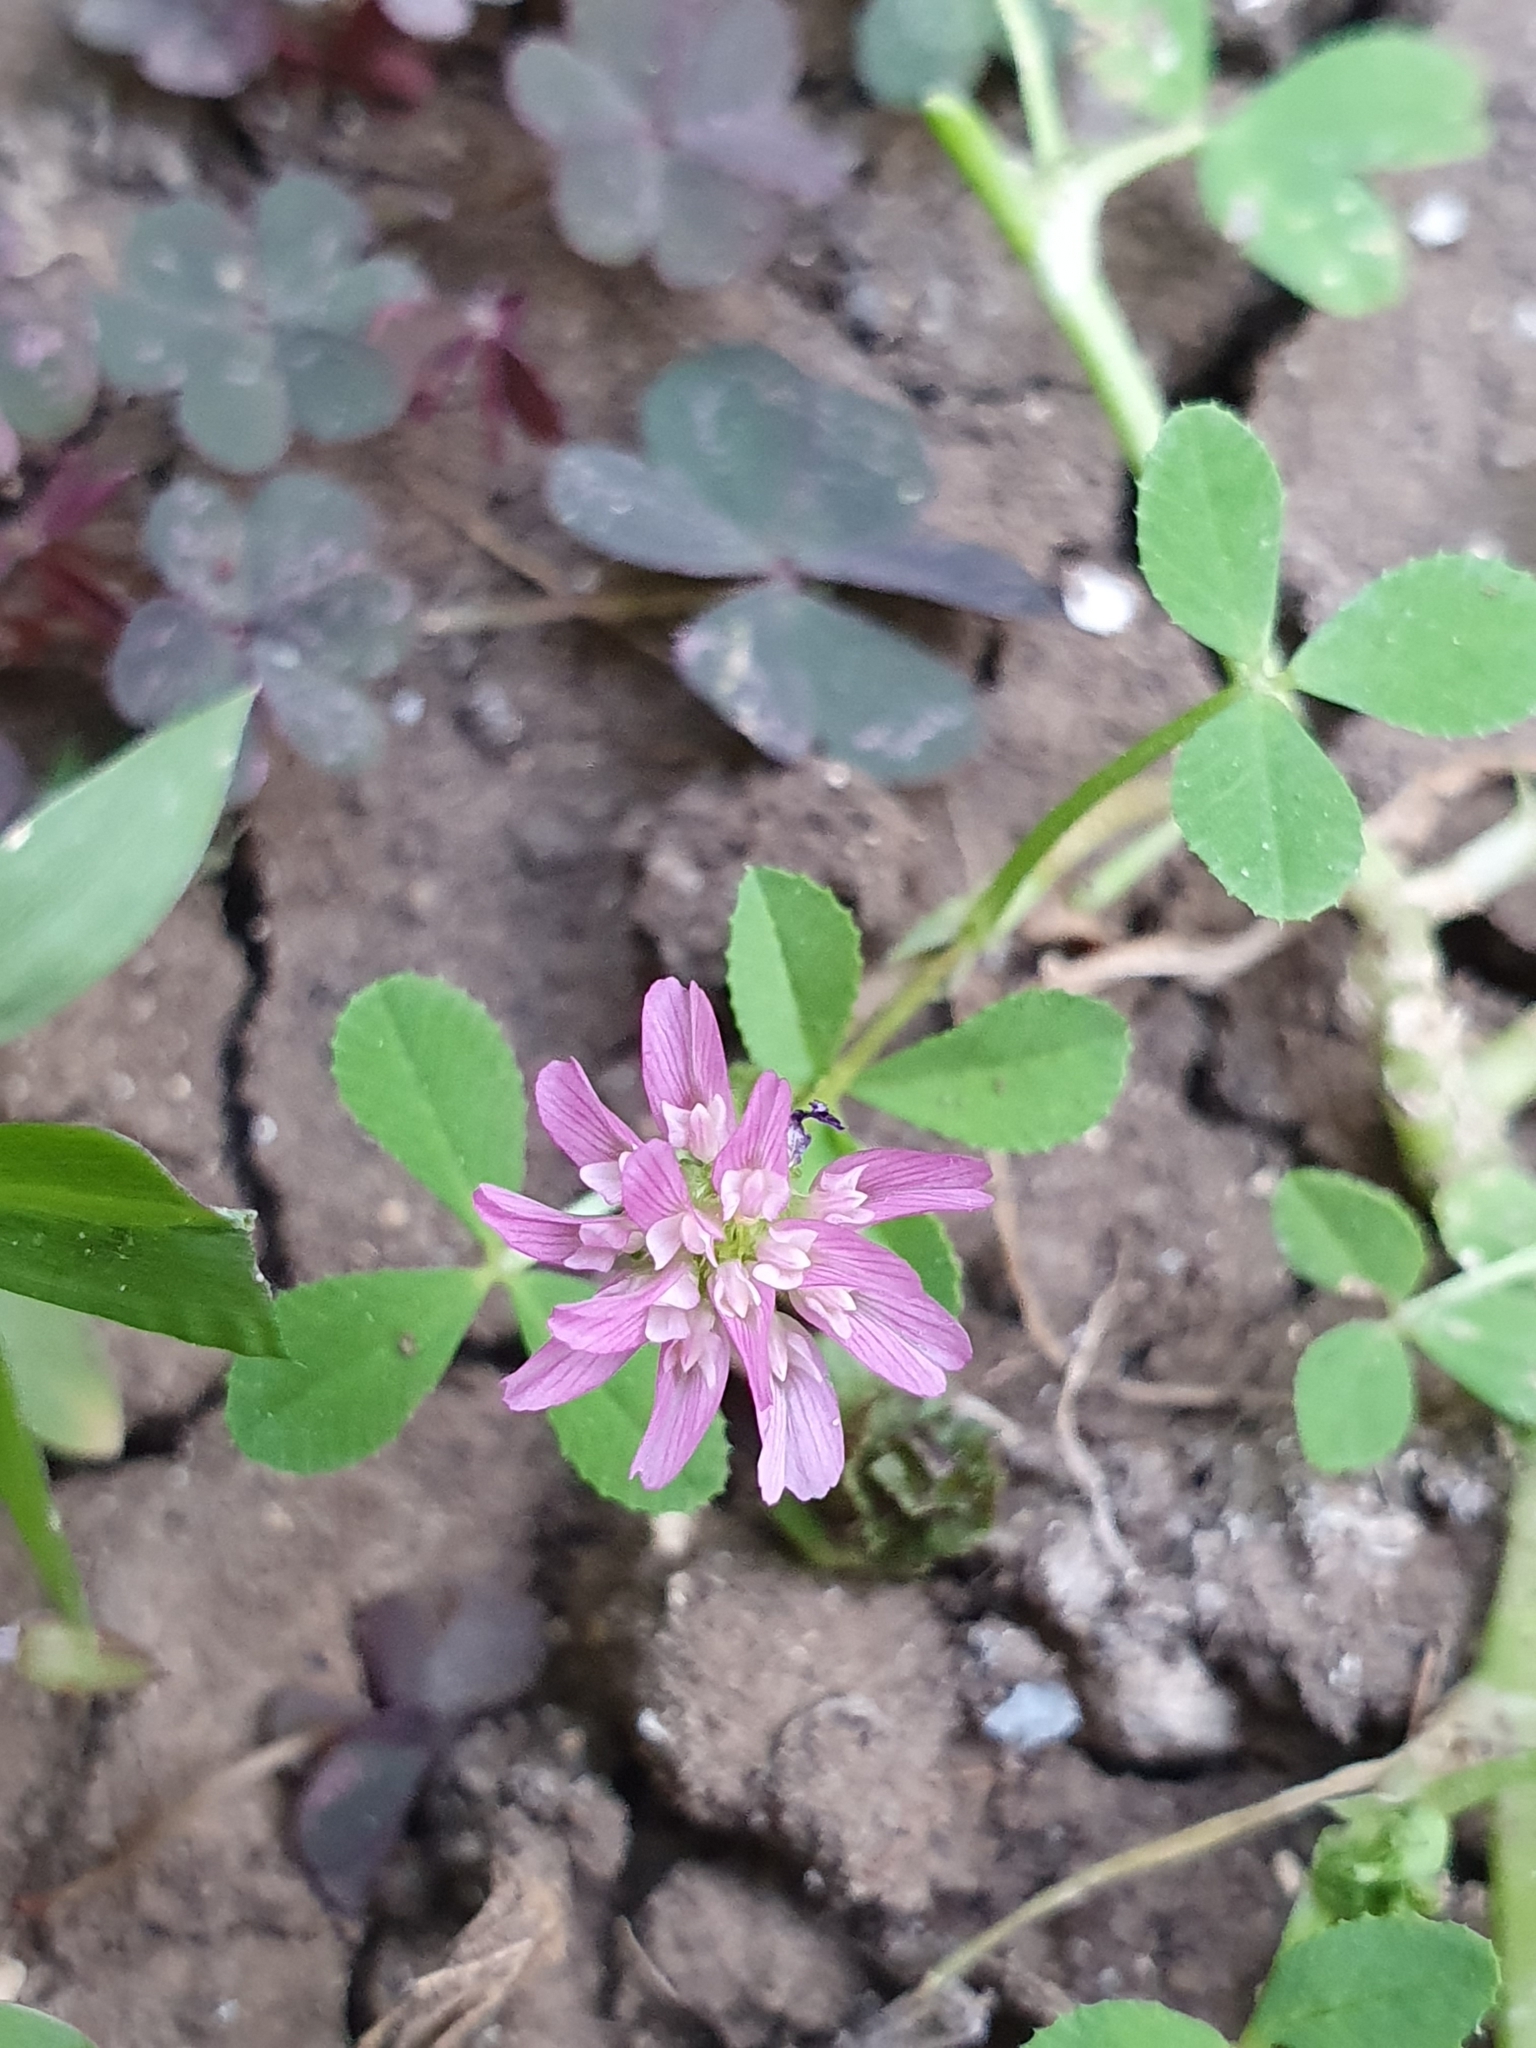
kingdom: Plantae
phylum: Tracheophyta
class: Magnoliopsida
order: Fabales
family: Fabaceae
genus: Trifolium
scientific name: Trifolium resupinatum
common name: Reversed clover
